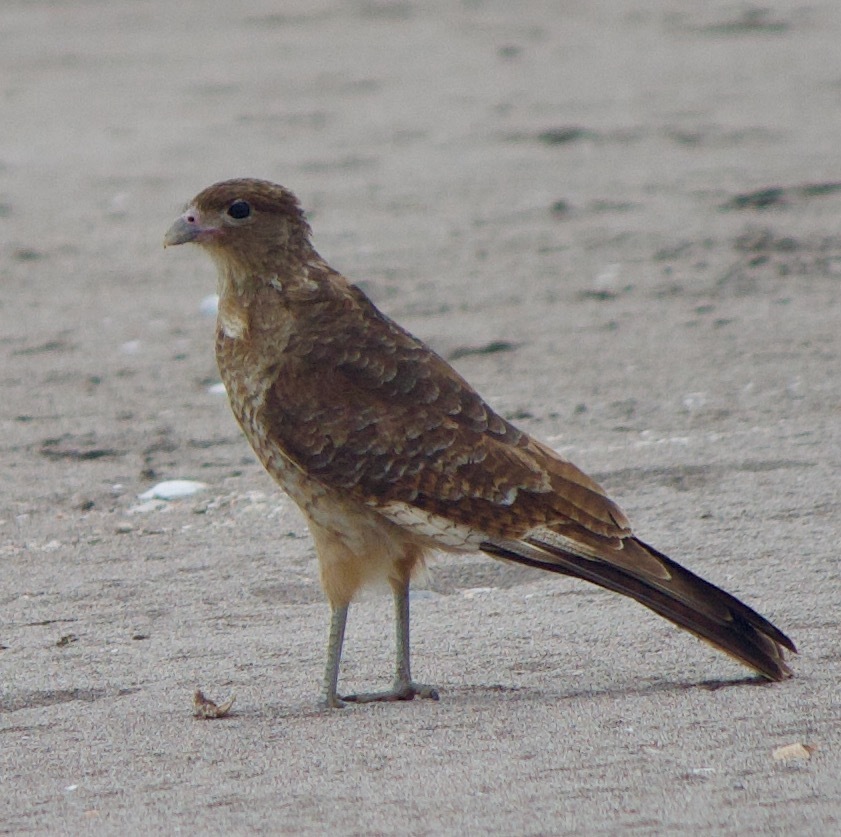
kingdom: Animalia
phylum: Chordata
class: Aves
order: Falconiformes
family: Falconidae
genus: Daptrius
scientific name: Daptrius
